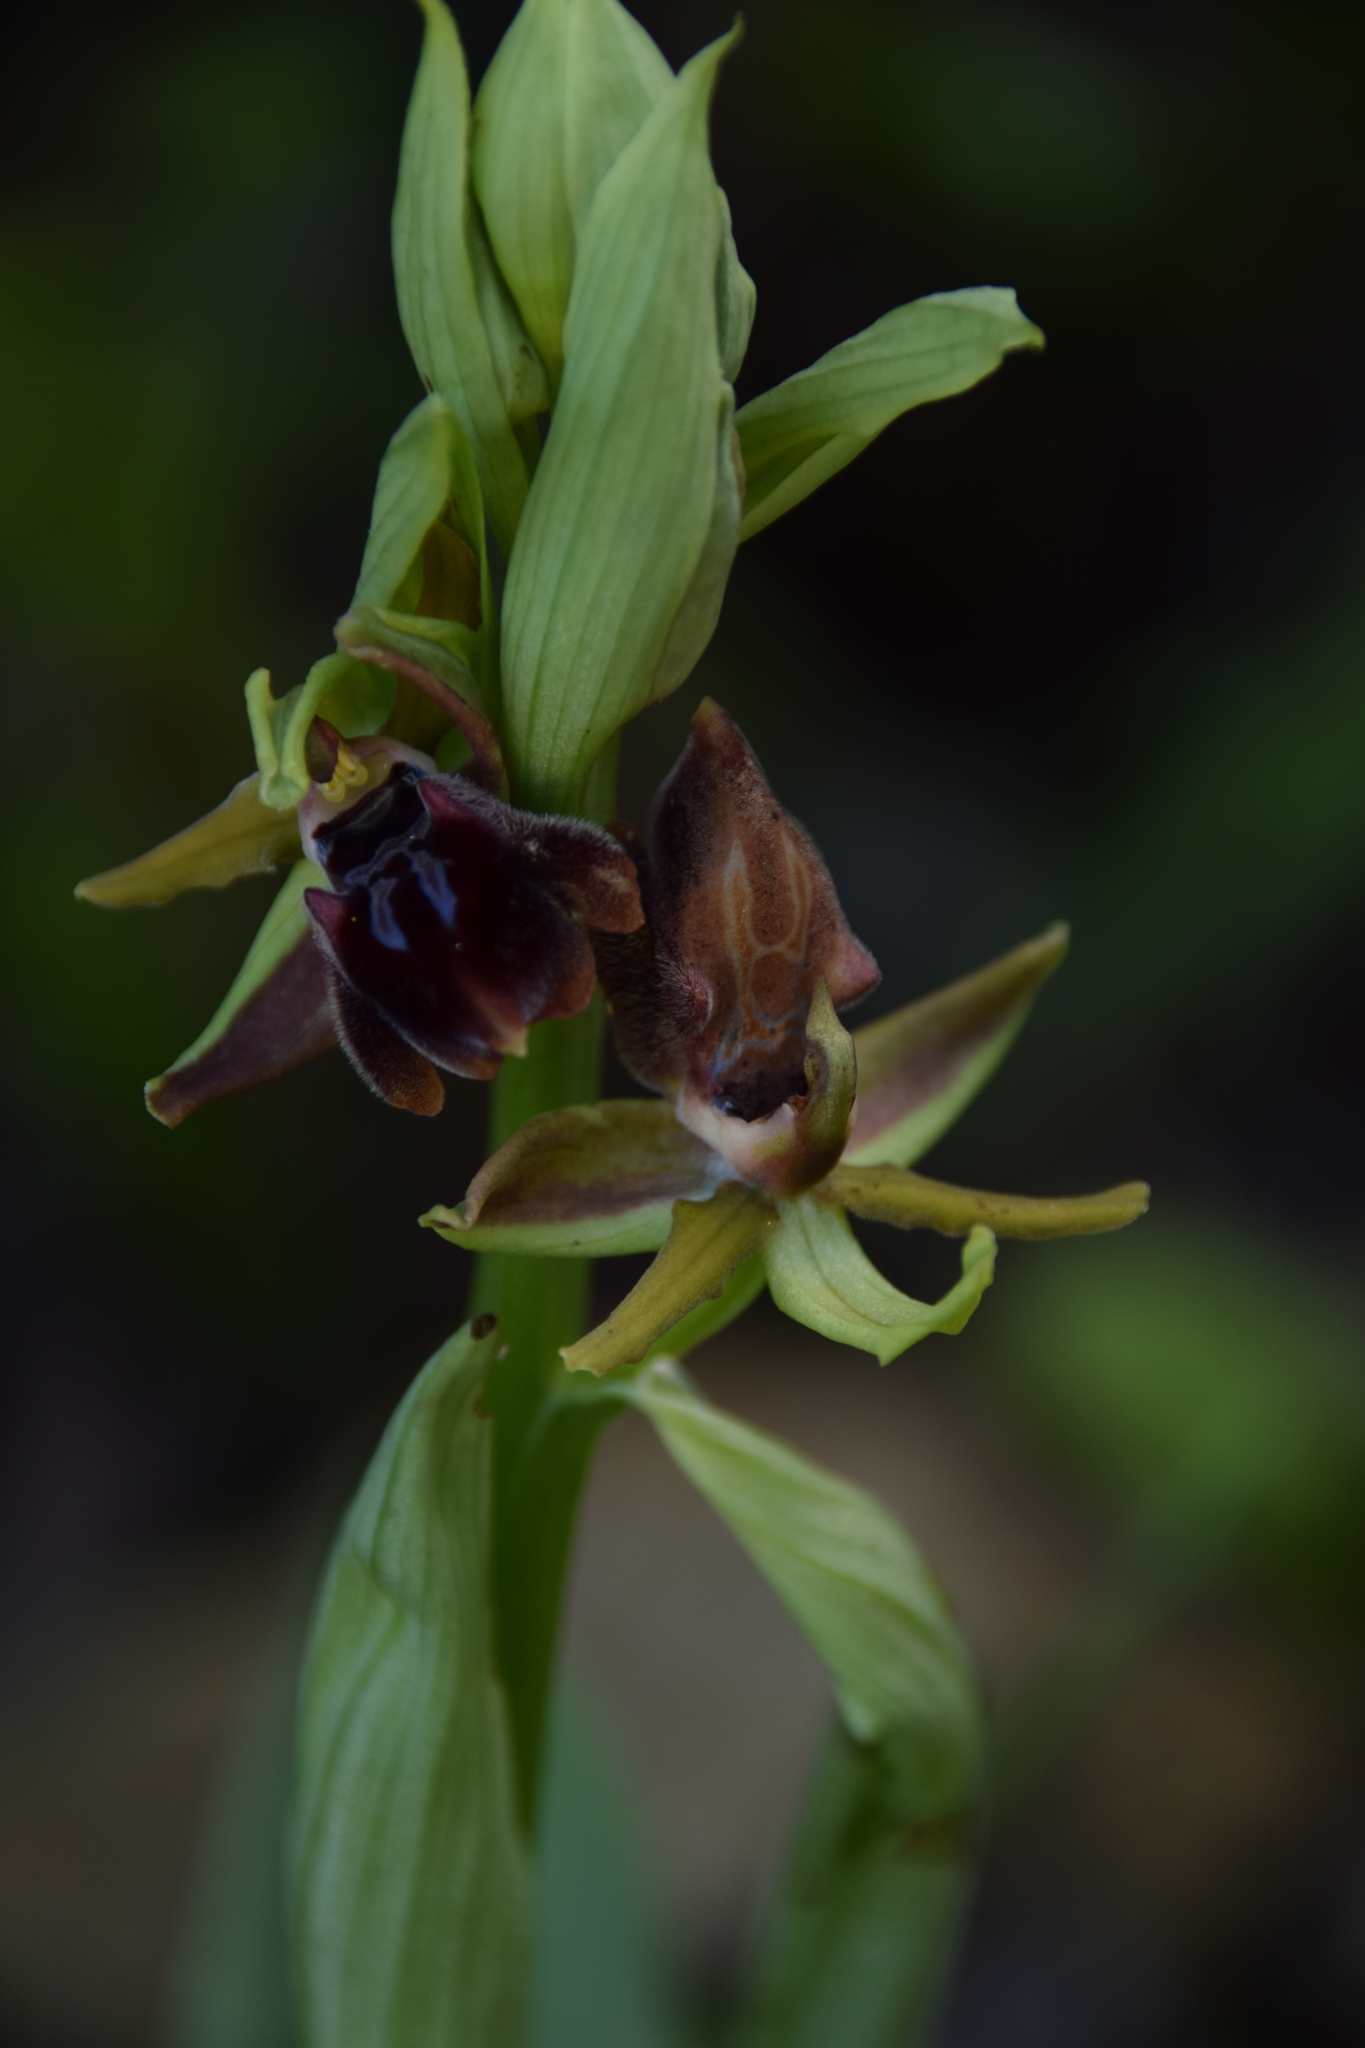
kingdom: Plantae
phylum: Tracheophyta
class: Liliopsida
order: Asparagales
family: Orchidaceae
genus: Ophrys
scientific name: Ophrys sphegodes
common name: Early spider-orchid
